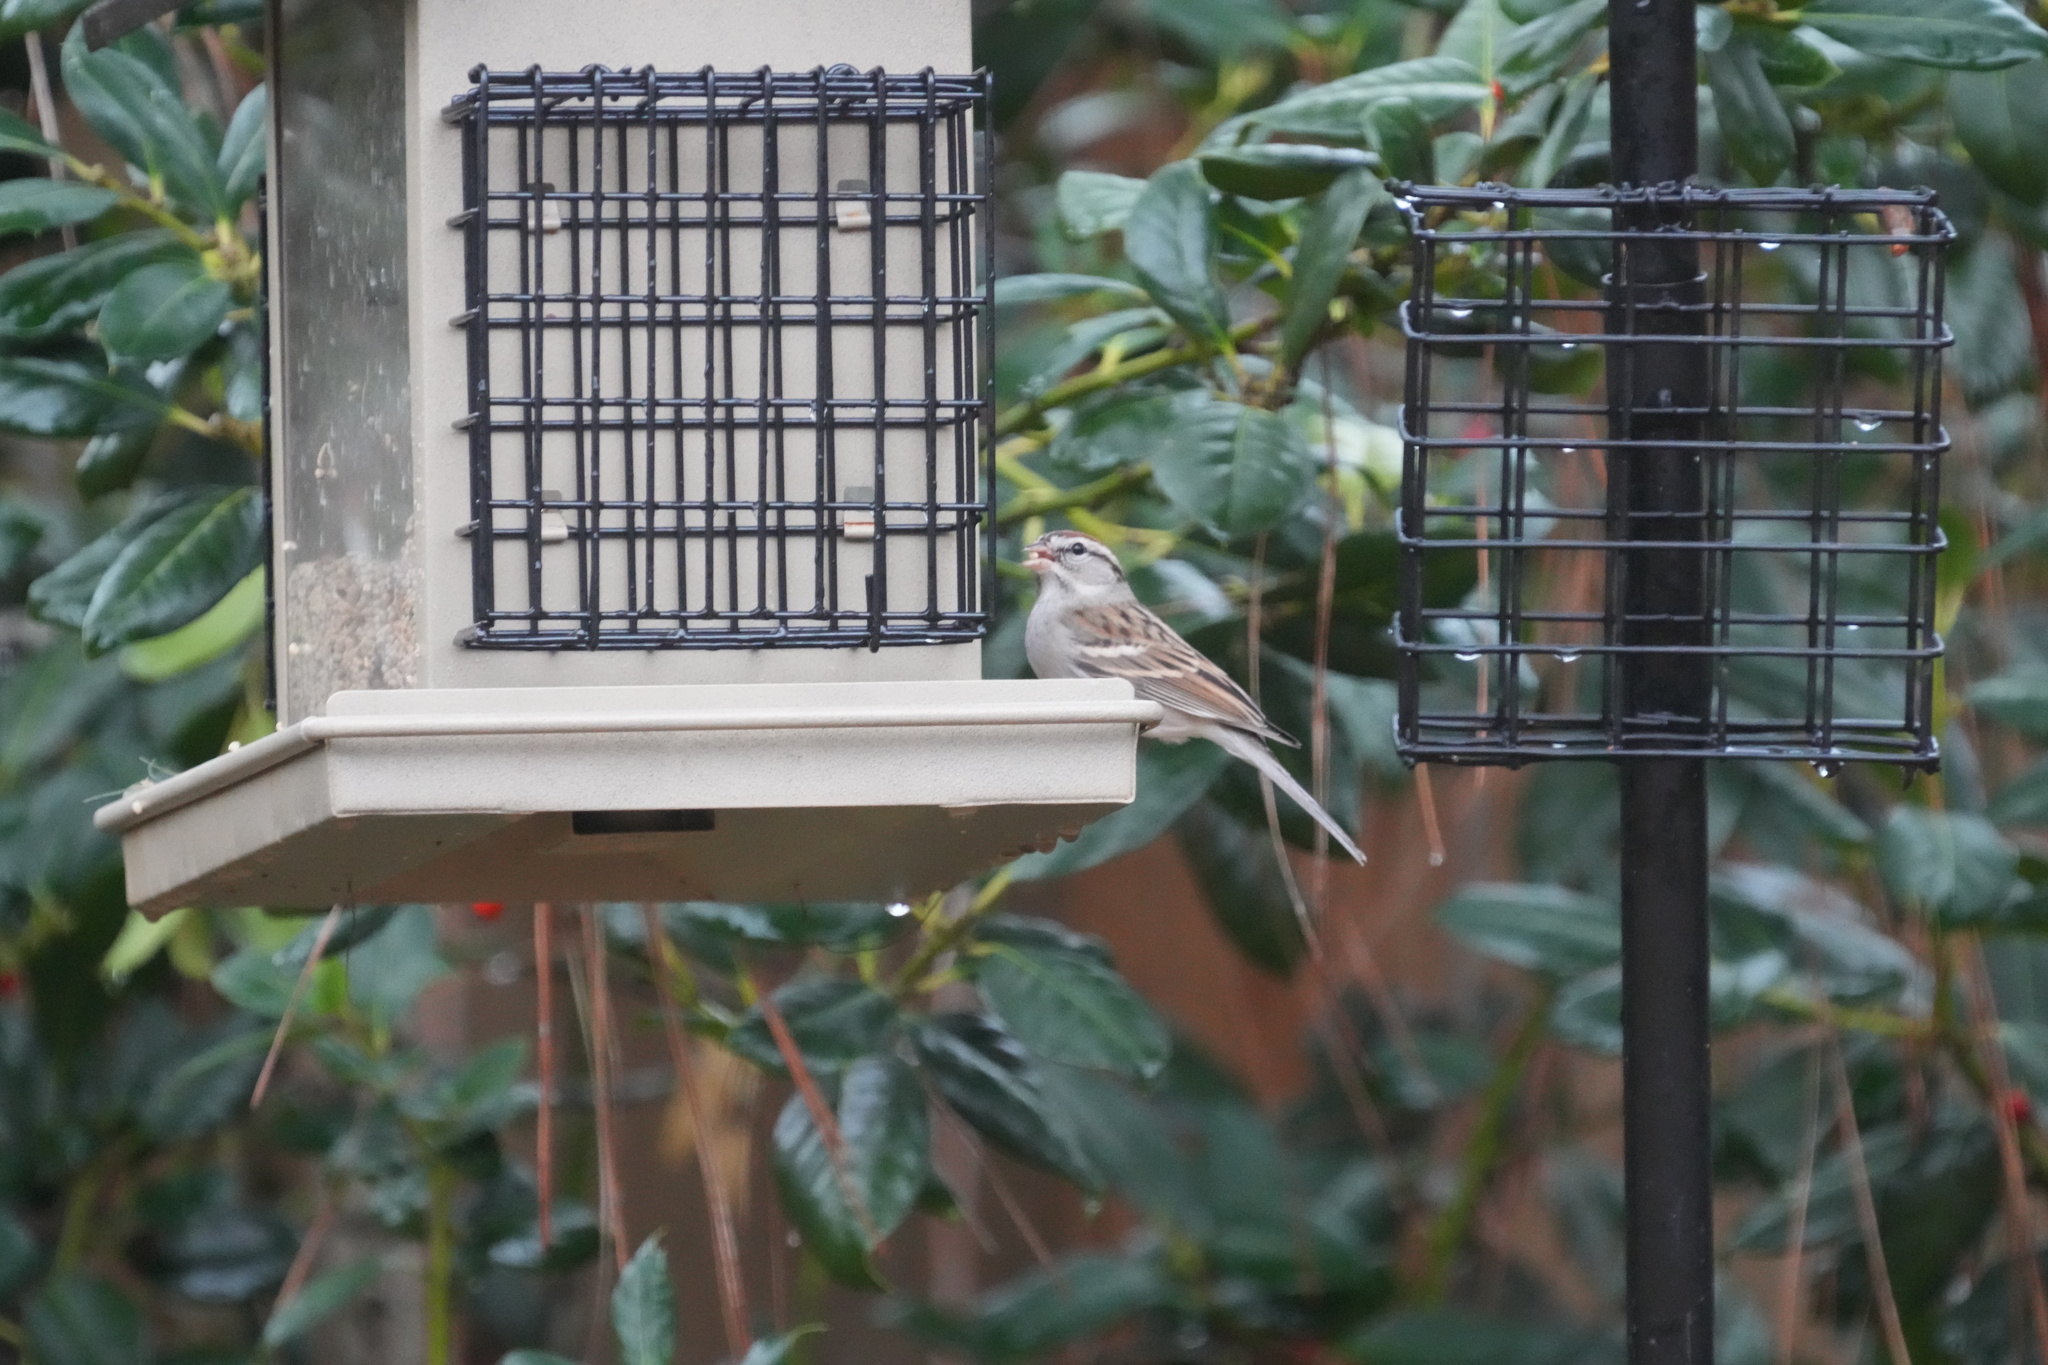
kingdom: Animalia
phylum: Chordata
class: Aves
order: Passeriformes
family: Passerellidae
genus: Spizella
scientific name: Spizella passerina
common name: Chipping sparrow
